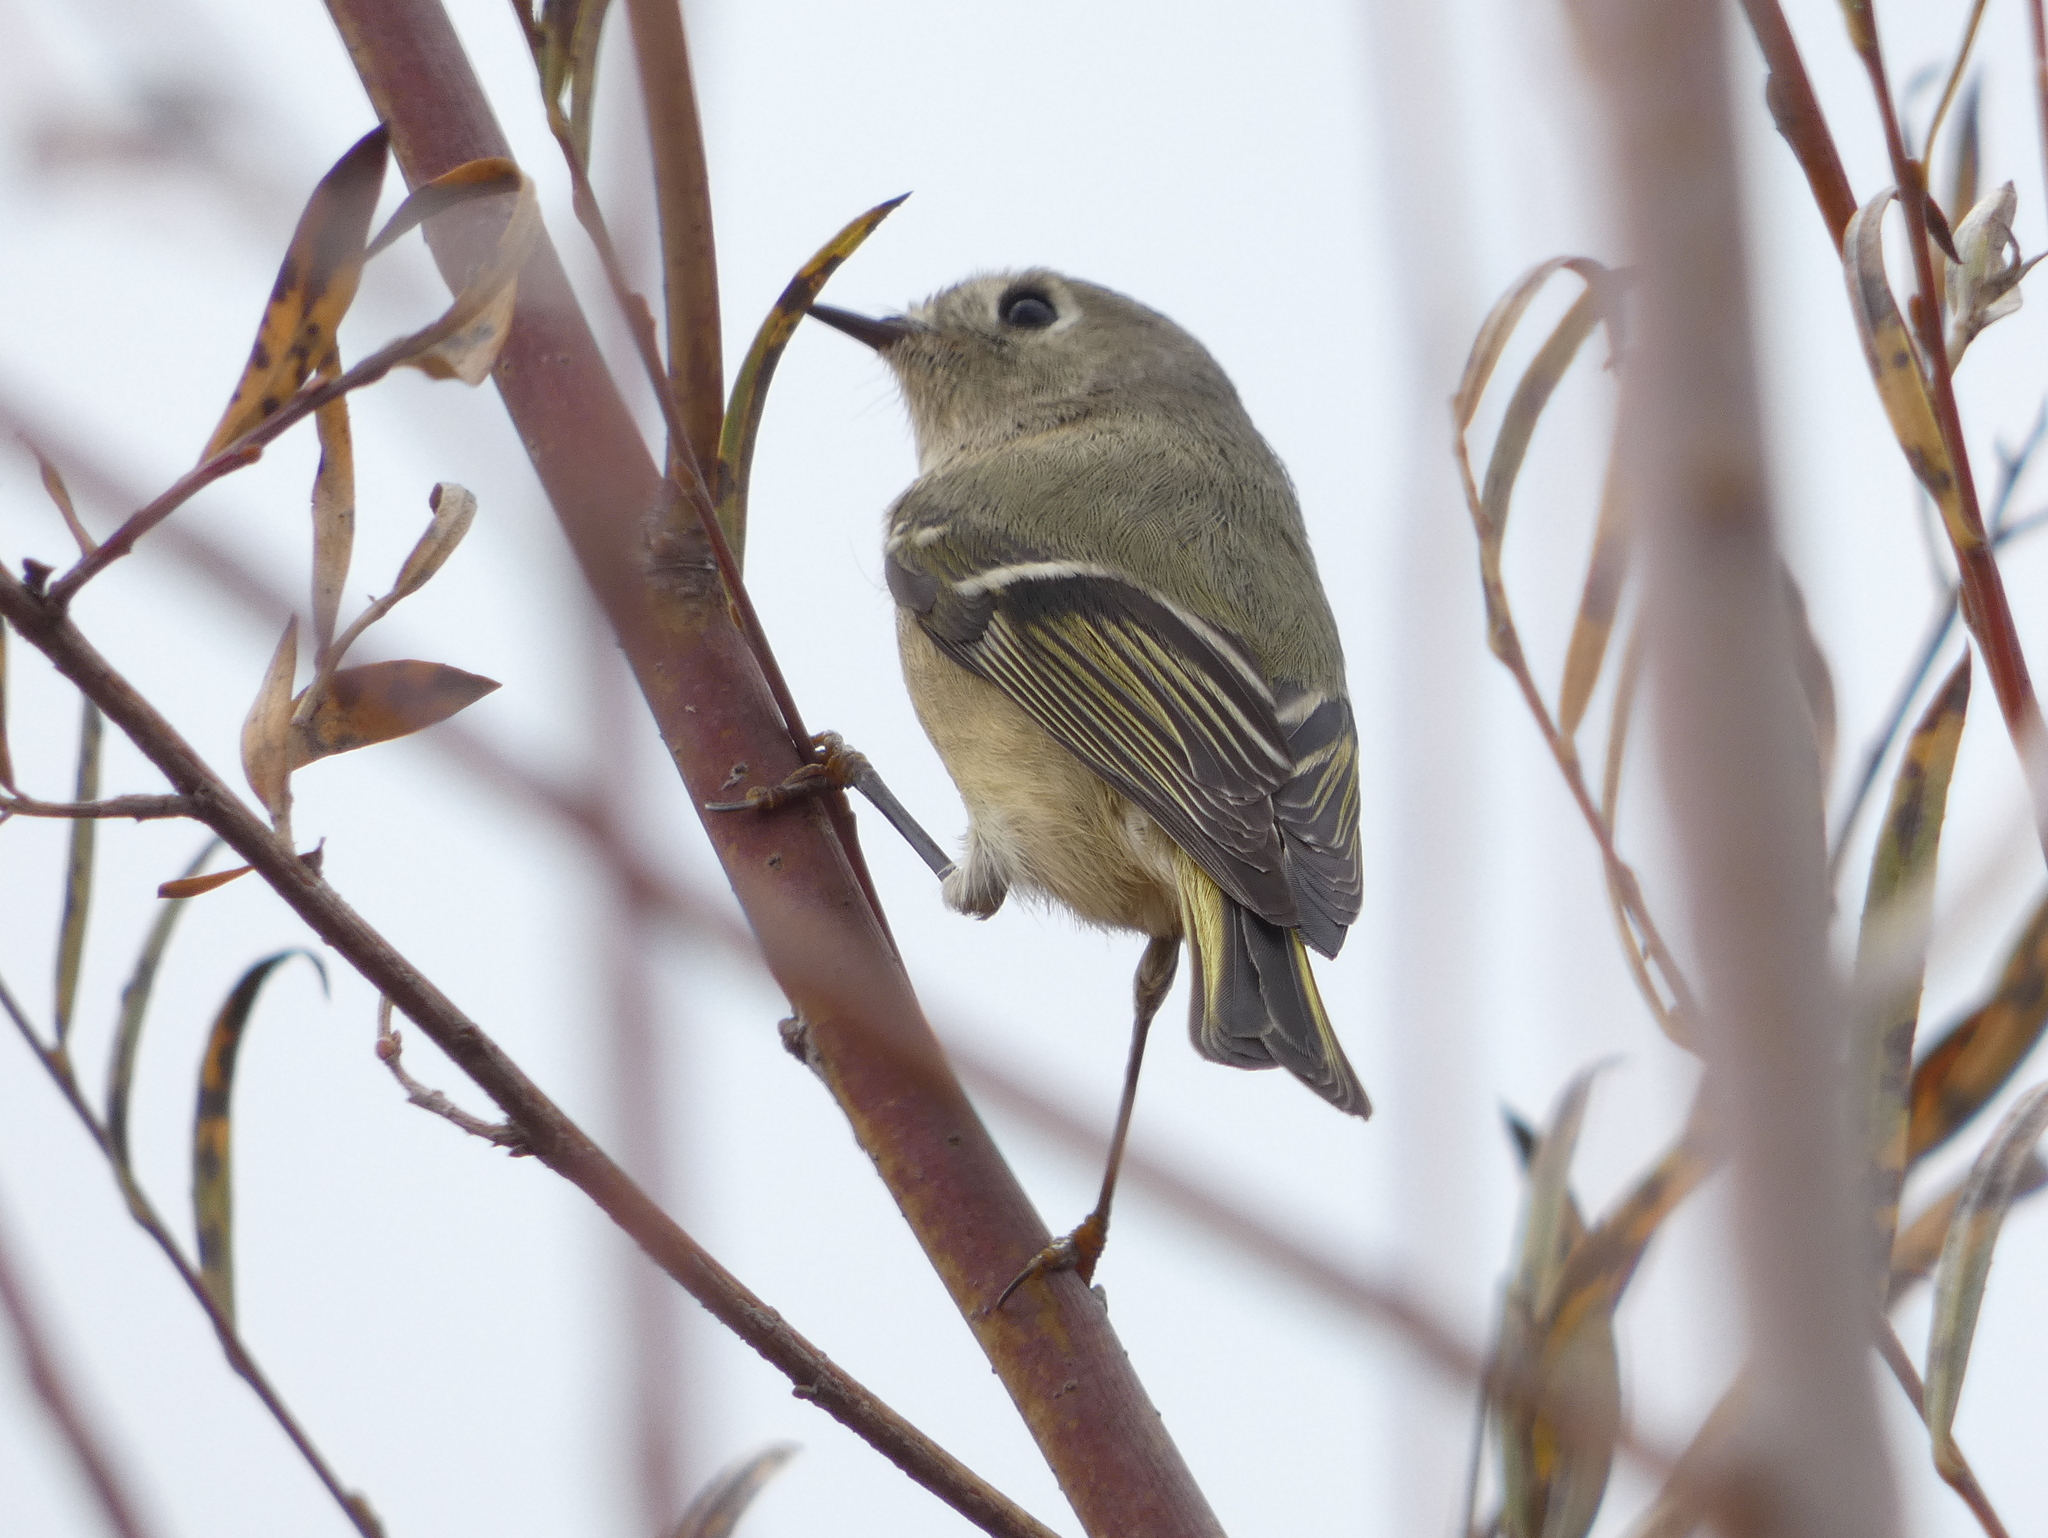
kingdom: Animalia
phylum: Chordata
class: Aves
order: Passeriformes
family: Regulidae
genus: Regulus
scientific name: Regulus calendula
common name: Ruby-crowned kinglet
